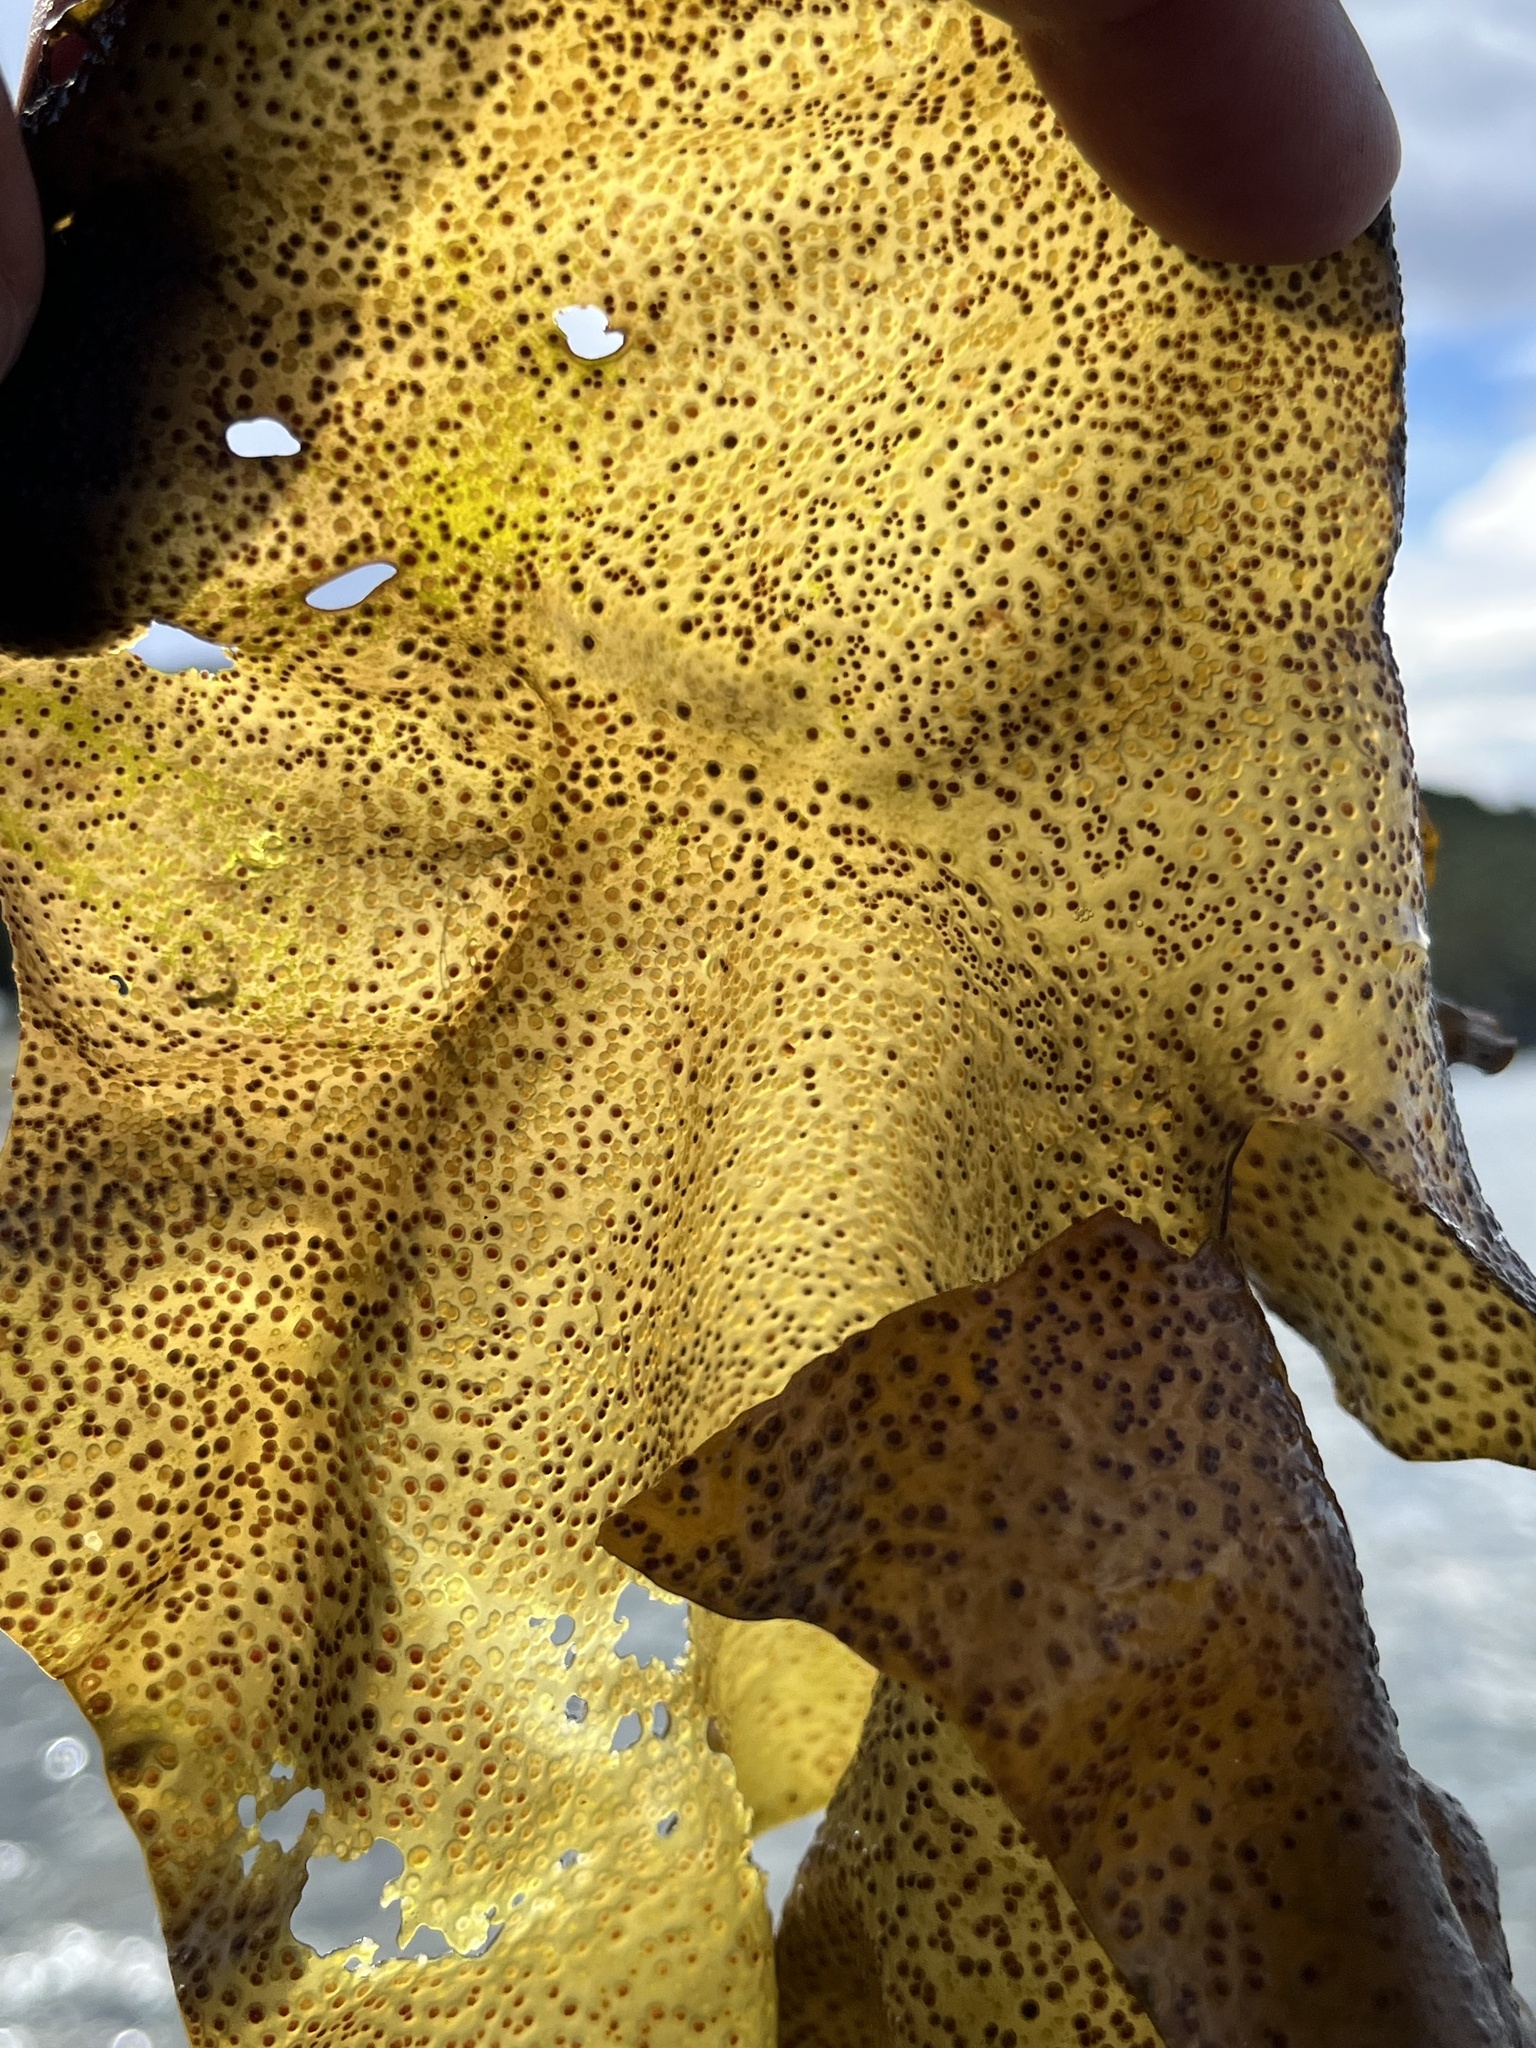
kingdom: Plantae
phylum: Rhodophyta
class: Florideophyceae
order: Gigartinales
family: Gigartinaceae
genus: Mazzaella
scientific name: Mazzaella laminarioides
